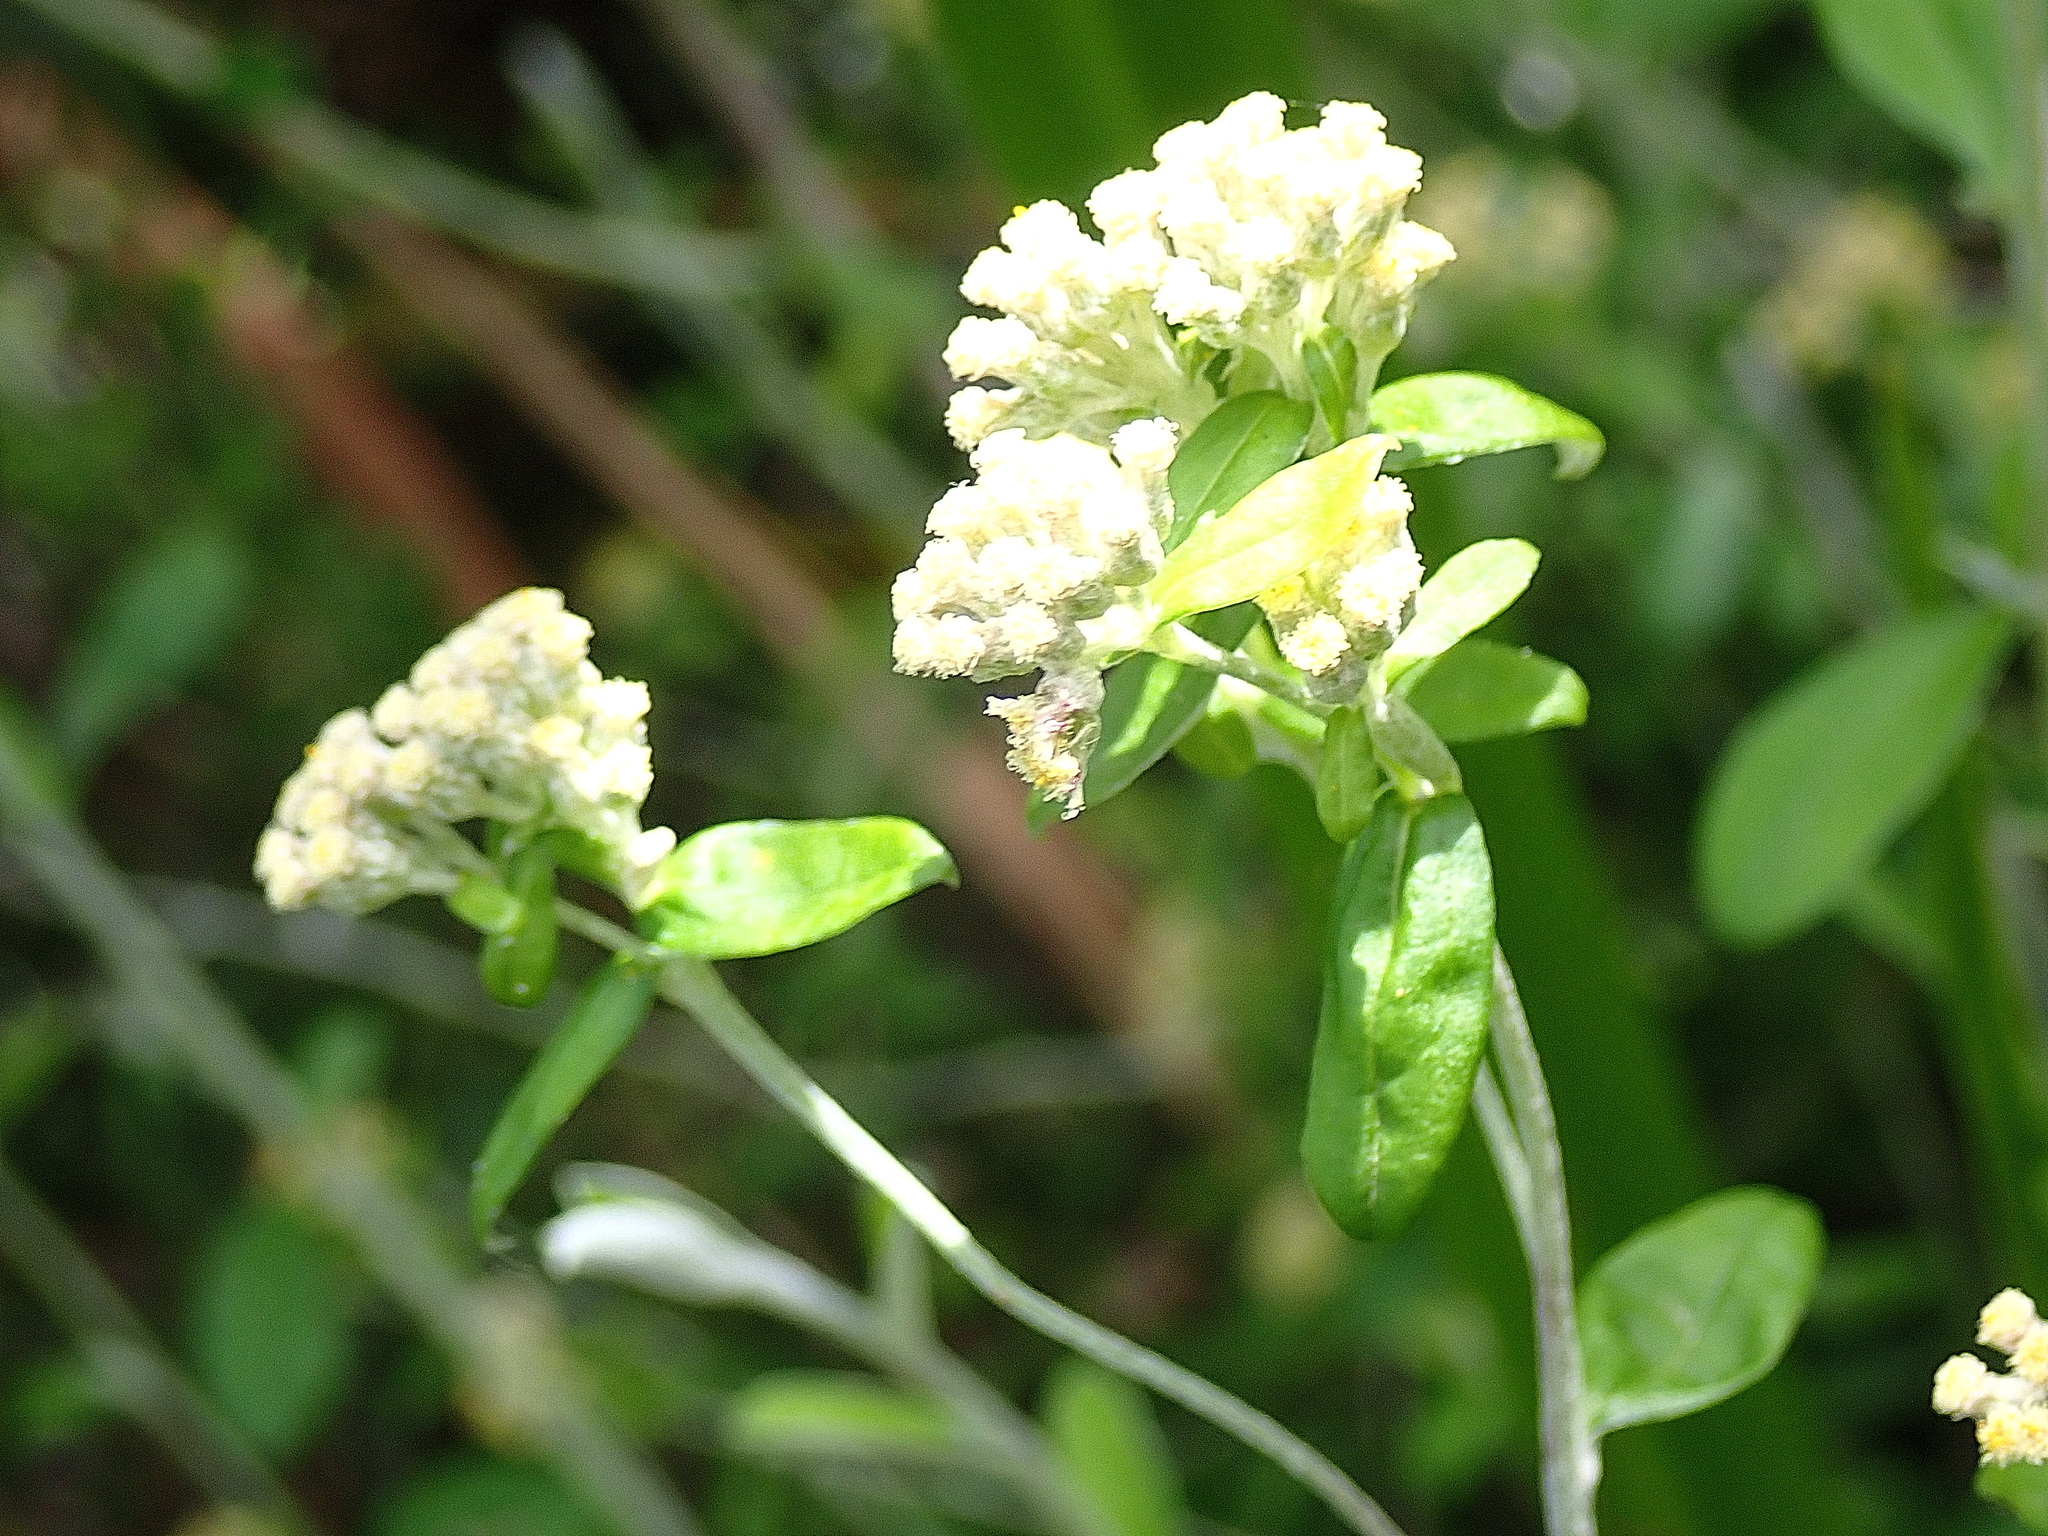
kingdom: Plantae
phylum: Tracheophyta
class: Magnoliopsida
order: Asterales
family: Asteraceae
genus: Plecostachys
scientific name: Plecostachys polifolia
